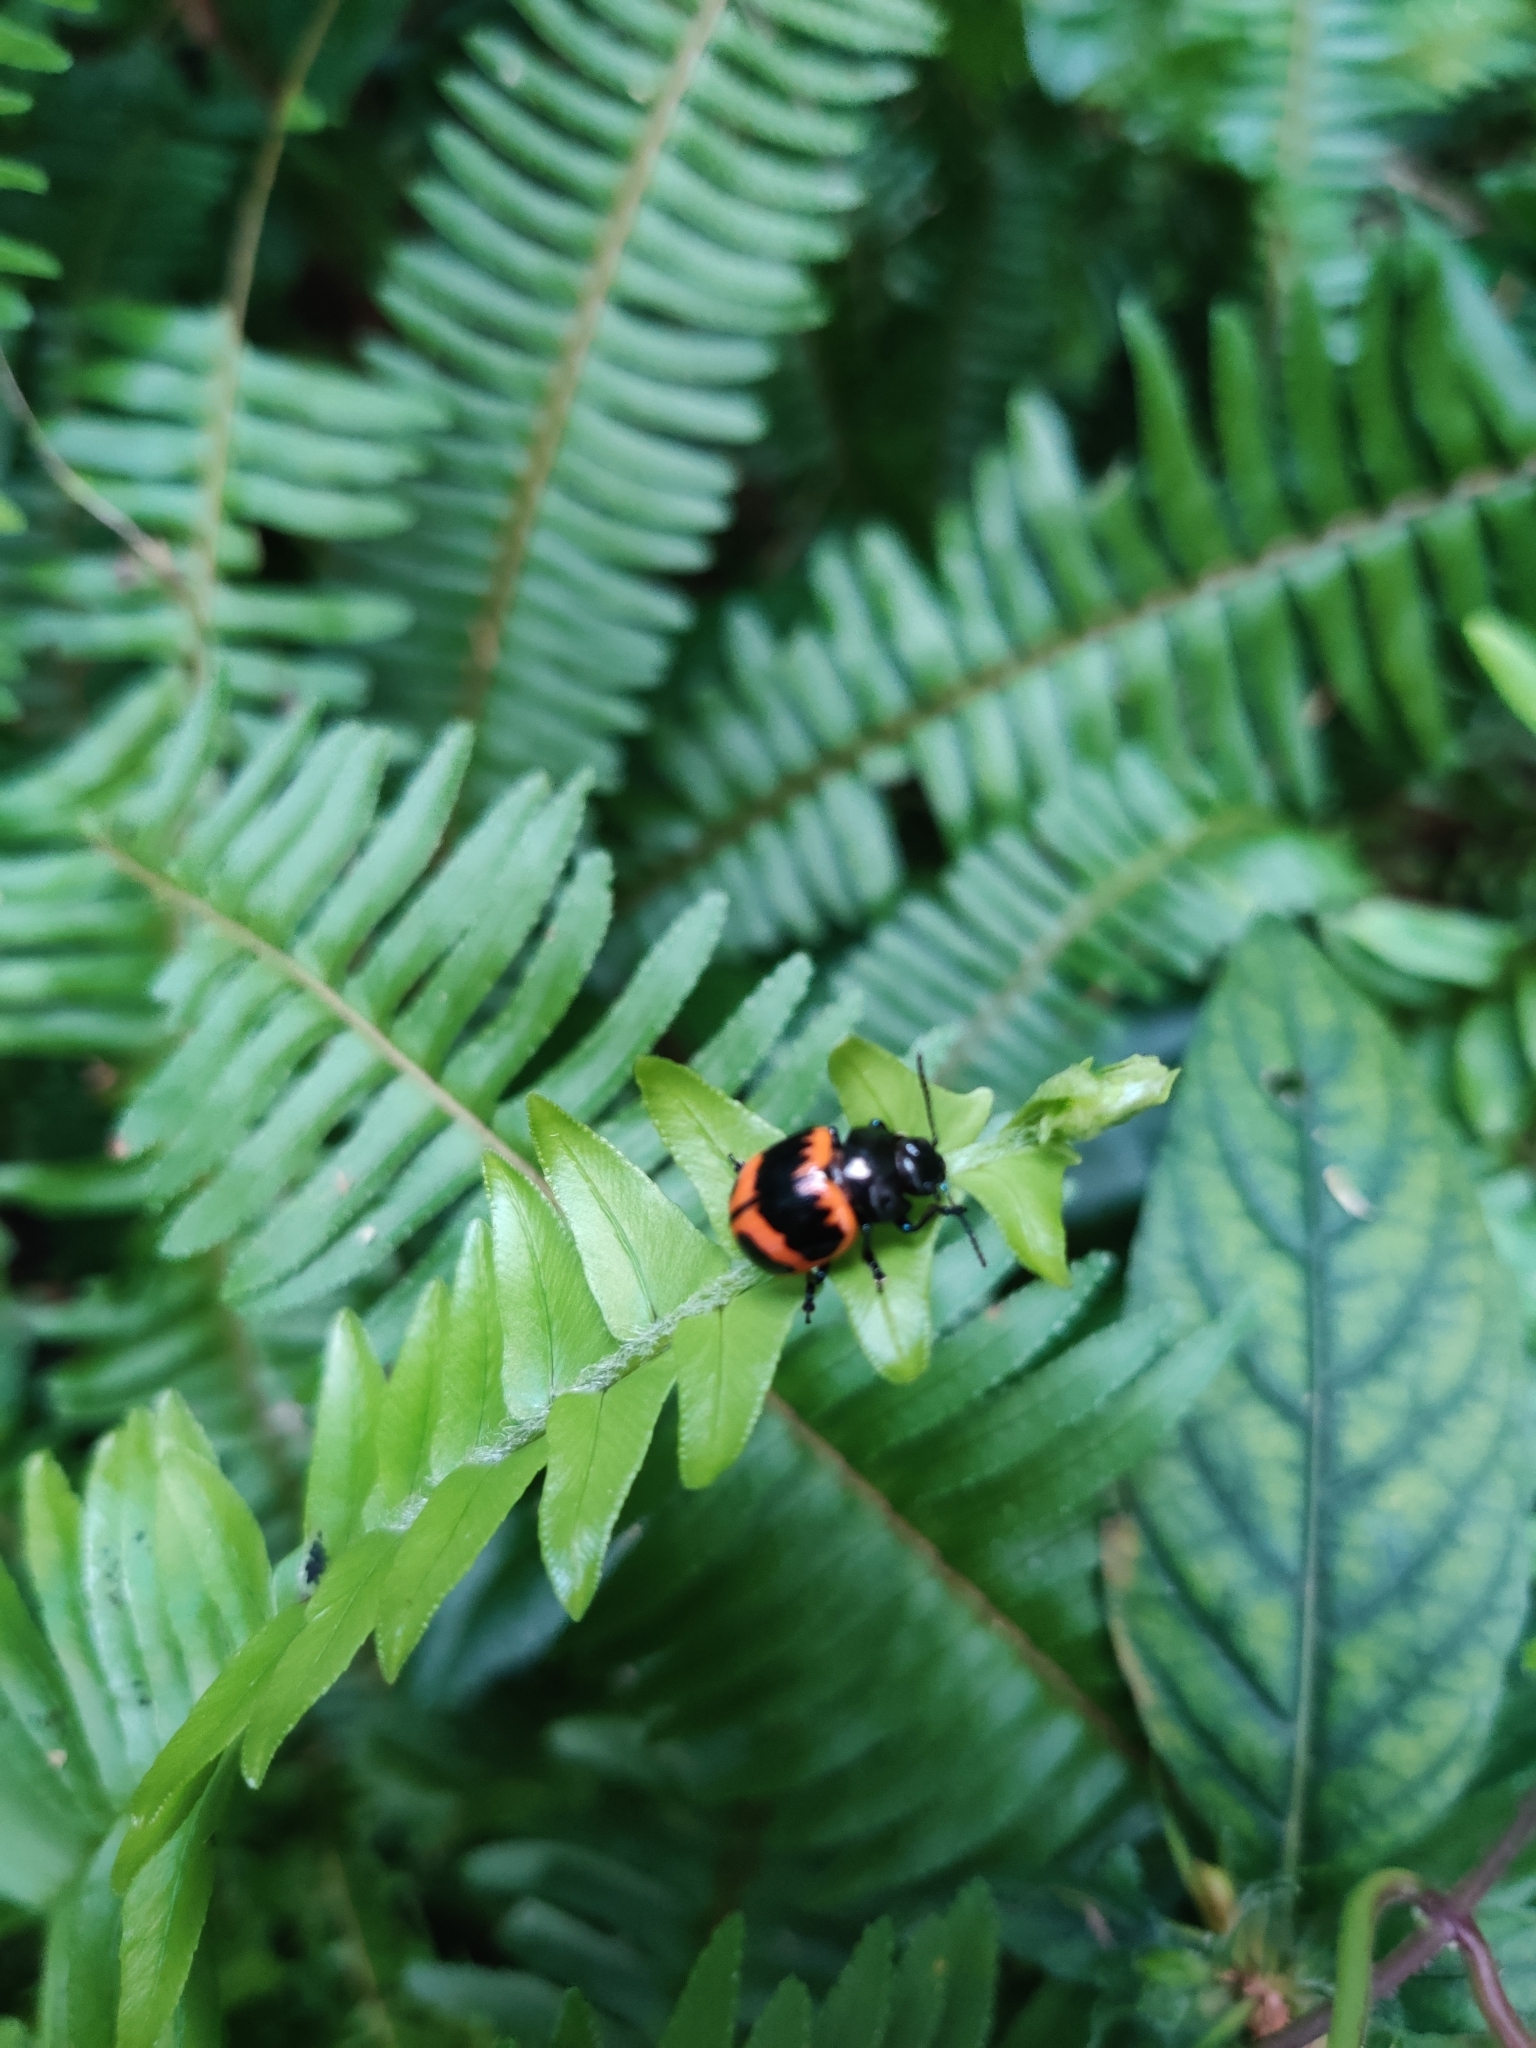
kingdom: Animalia
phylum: Arthropoda
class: Insecta
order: Coleoptera
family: Chrysomelidae
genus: Labidomera
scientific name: Labidomera clivicollis
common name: Swamp milkweed leaf beetle
